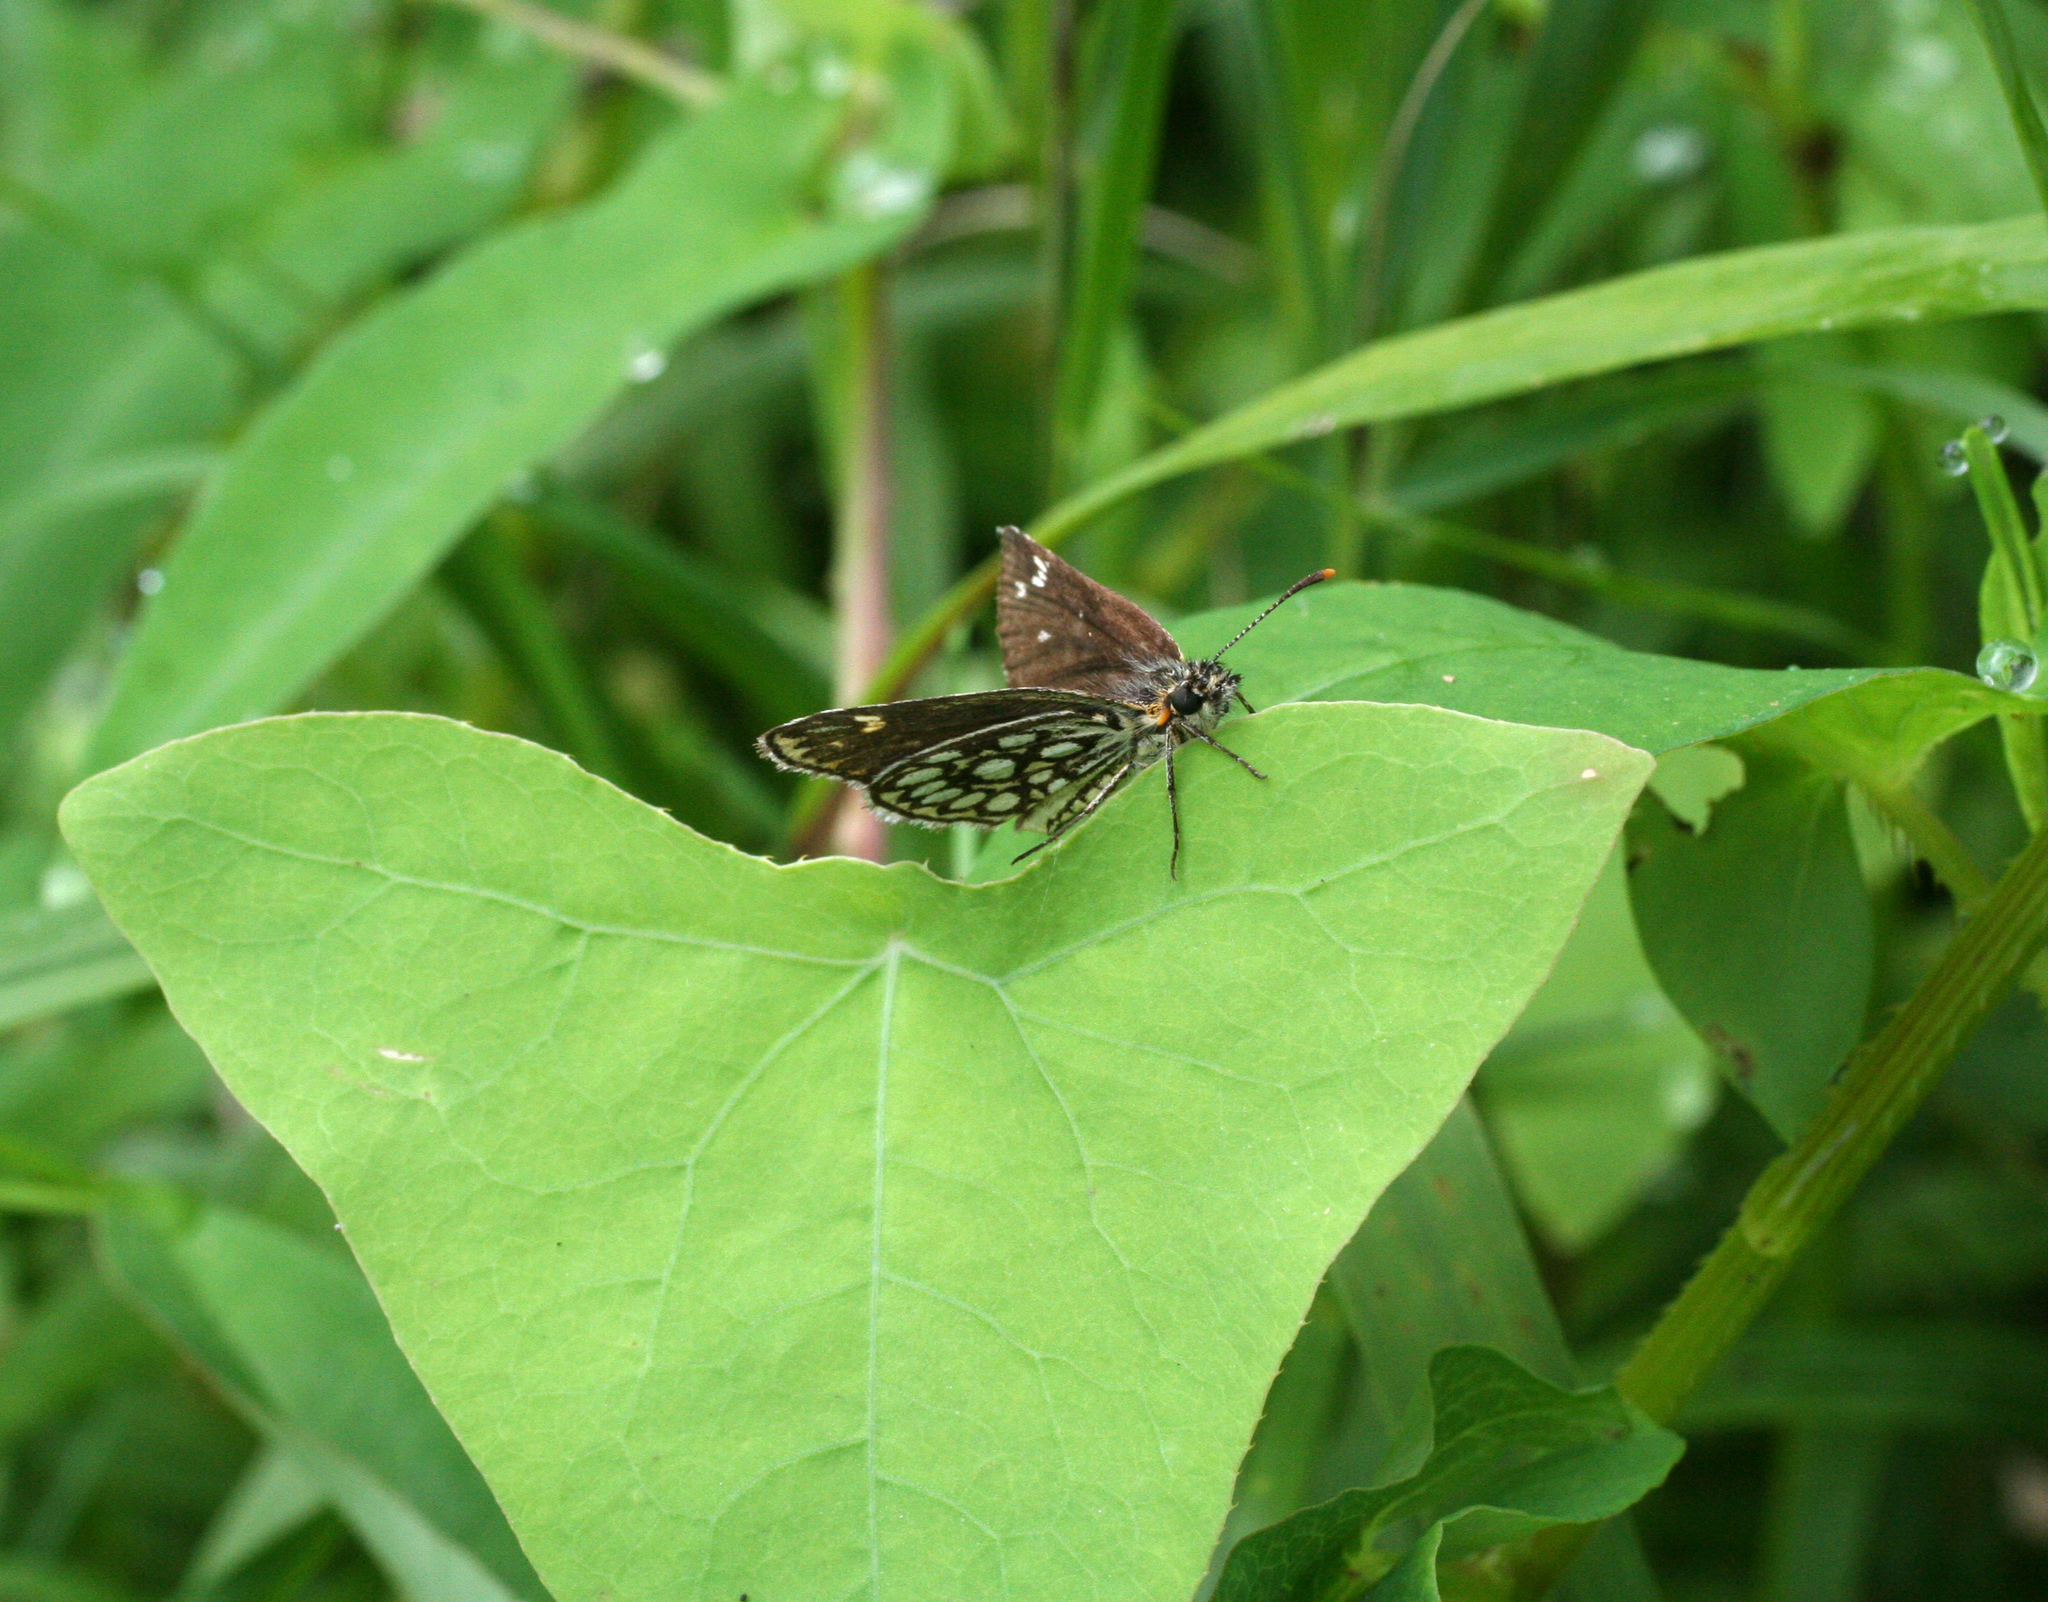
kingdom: Animalia
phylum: Arthropoda
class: Insecta
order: Lepidoptera
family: Hesperiidae
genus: Heteropterus
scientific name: Heteropterus morpheus
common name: Large chequered skipper
